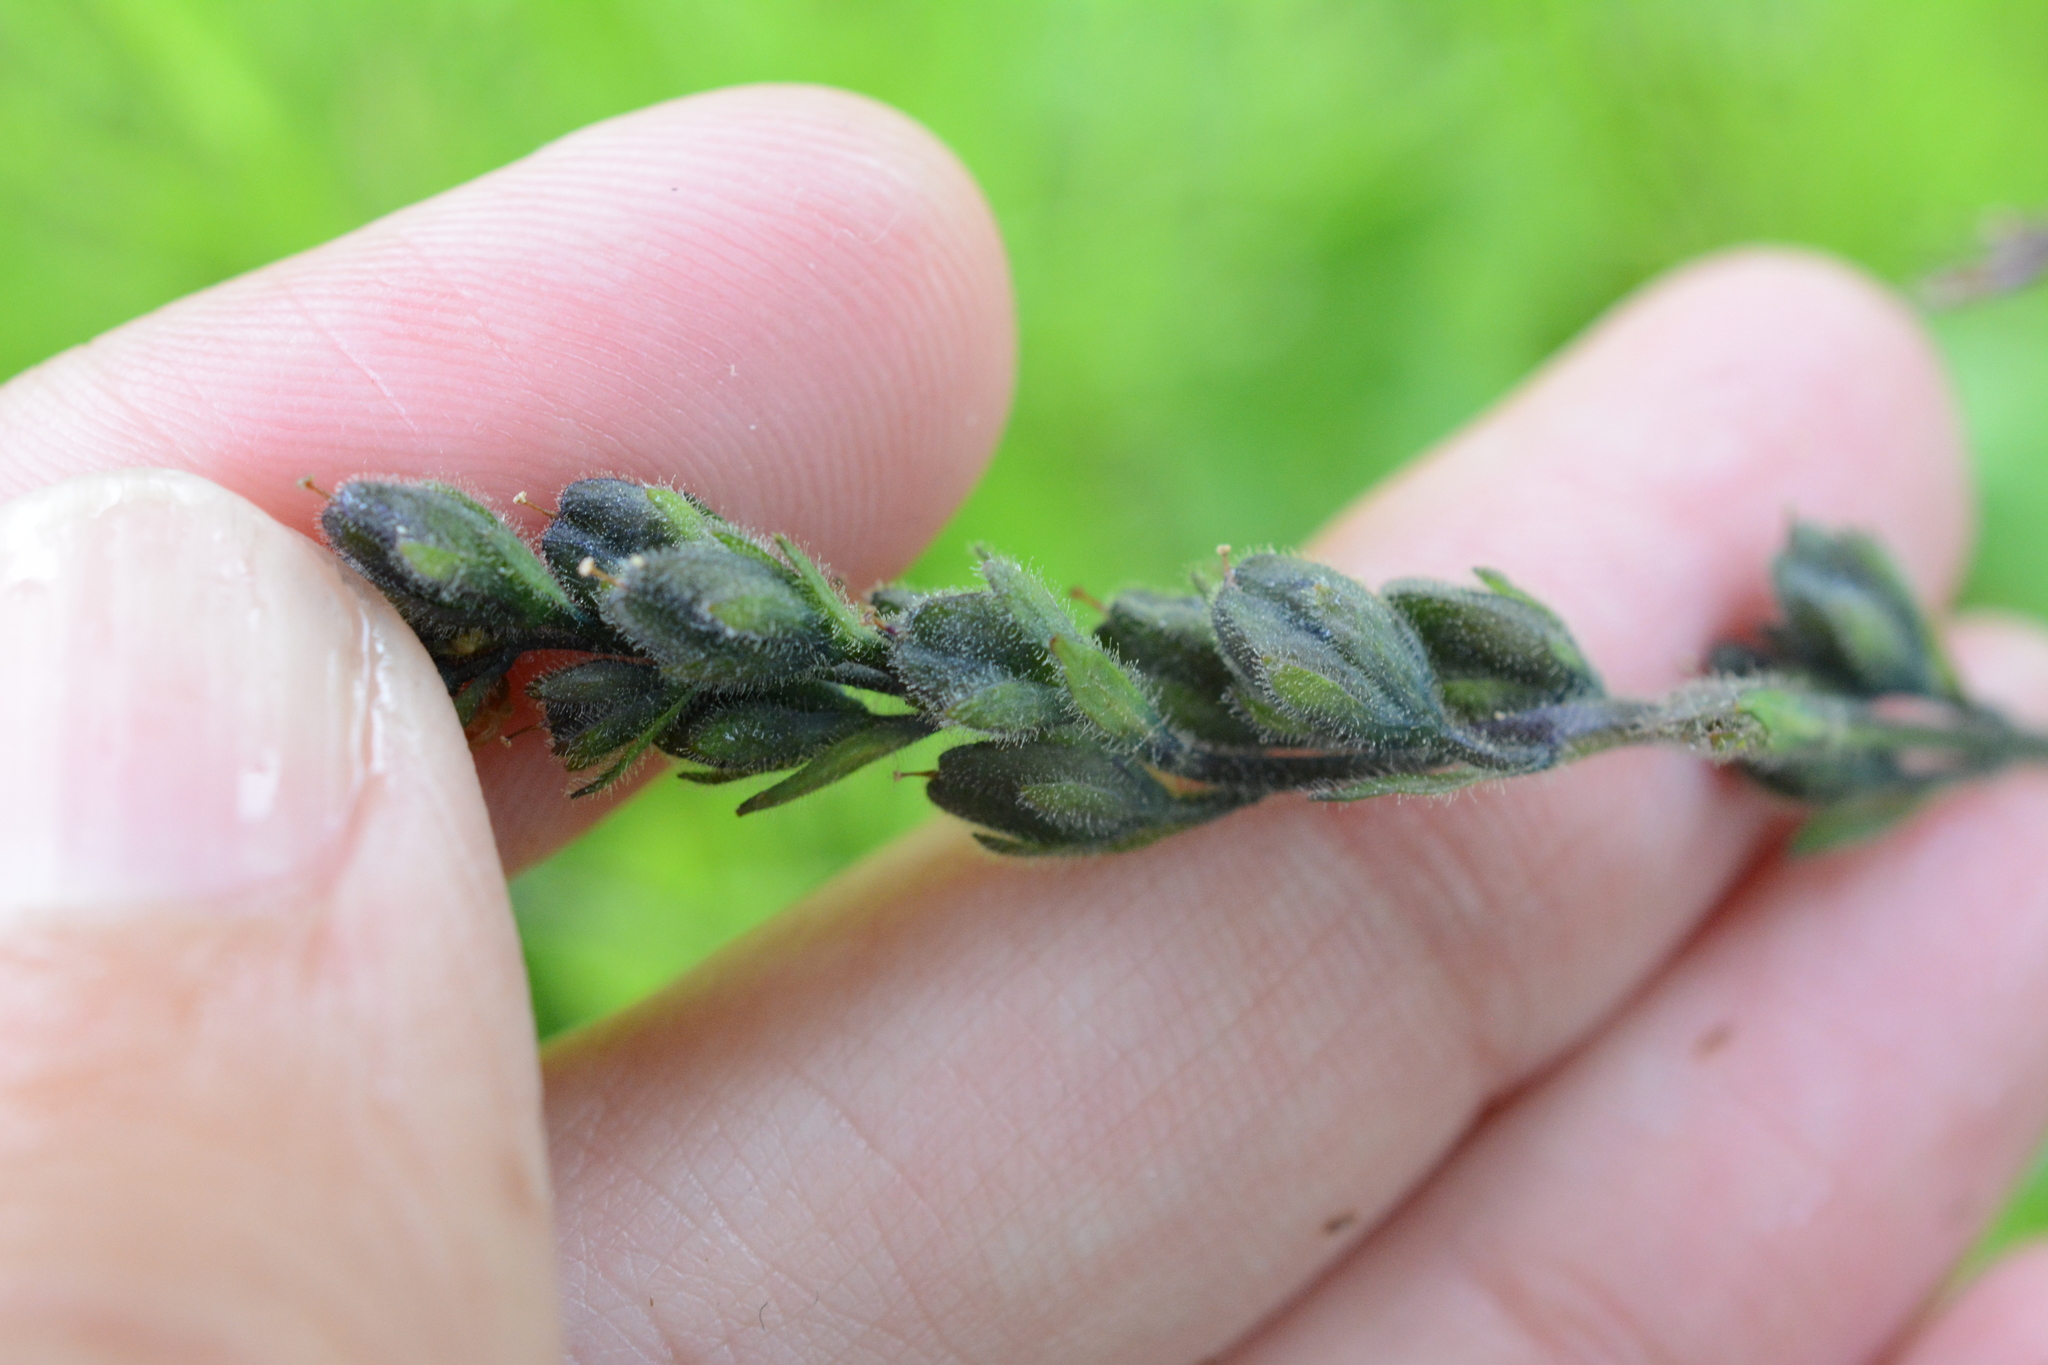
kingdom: Plantae
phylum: Tracheophyta
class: Magnoliopsida
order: Lamiales
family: Plantaginaceae
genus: Veronica
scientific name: Veronica wormskjoldii
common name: American alpine speedwell
